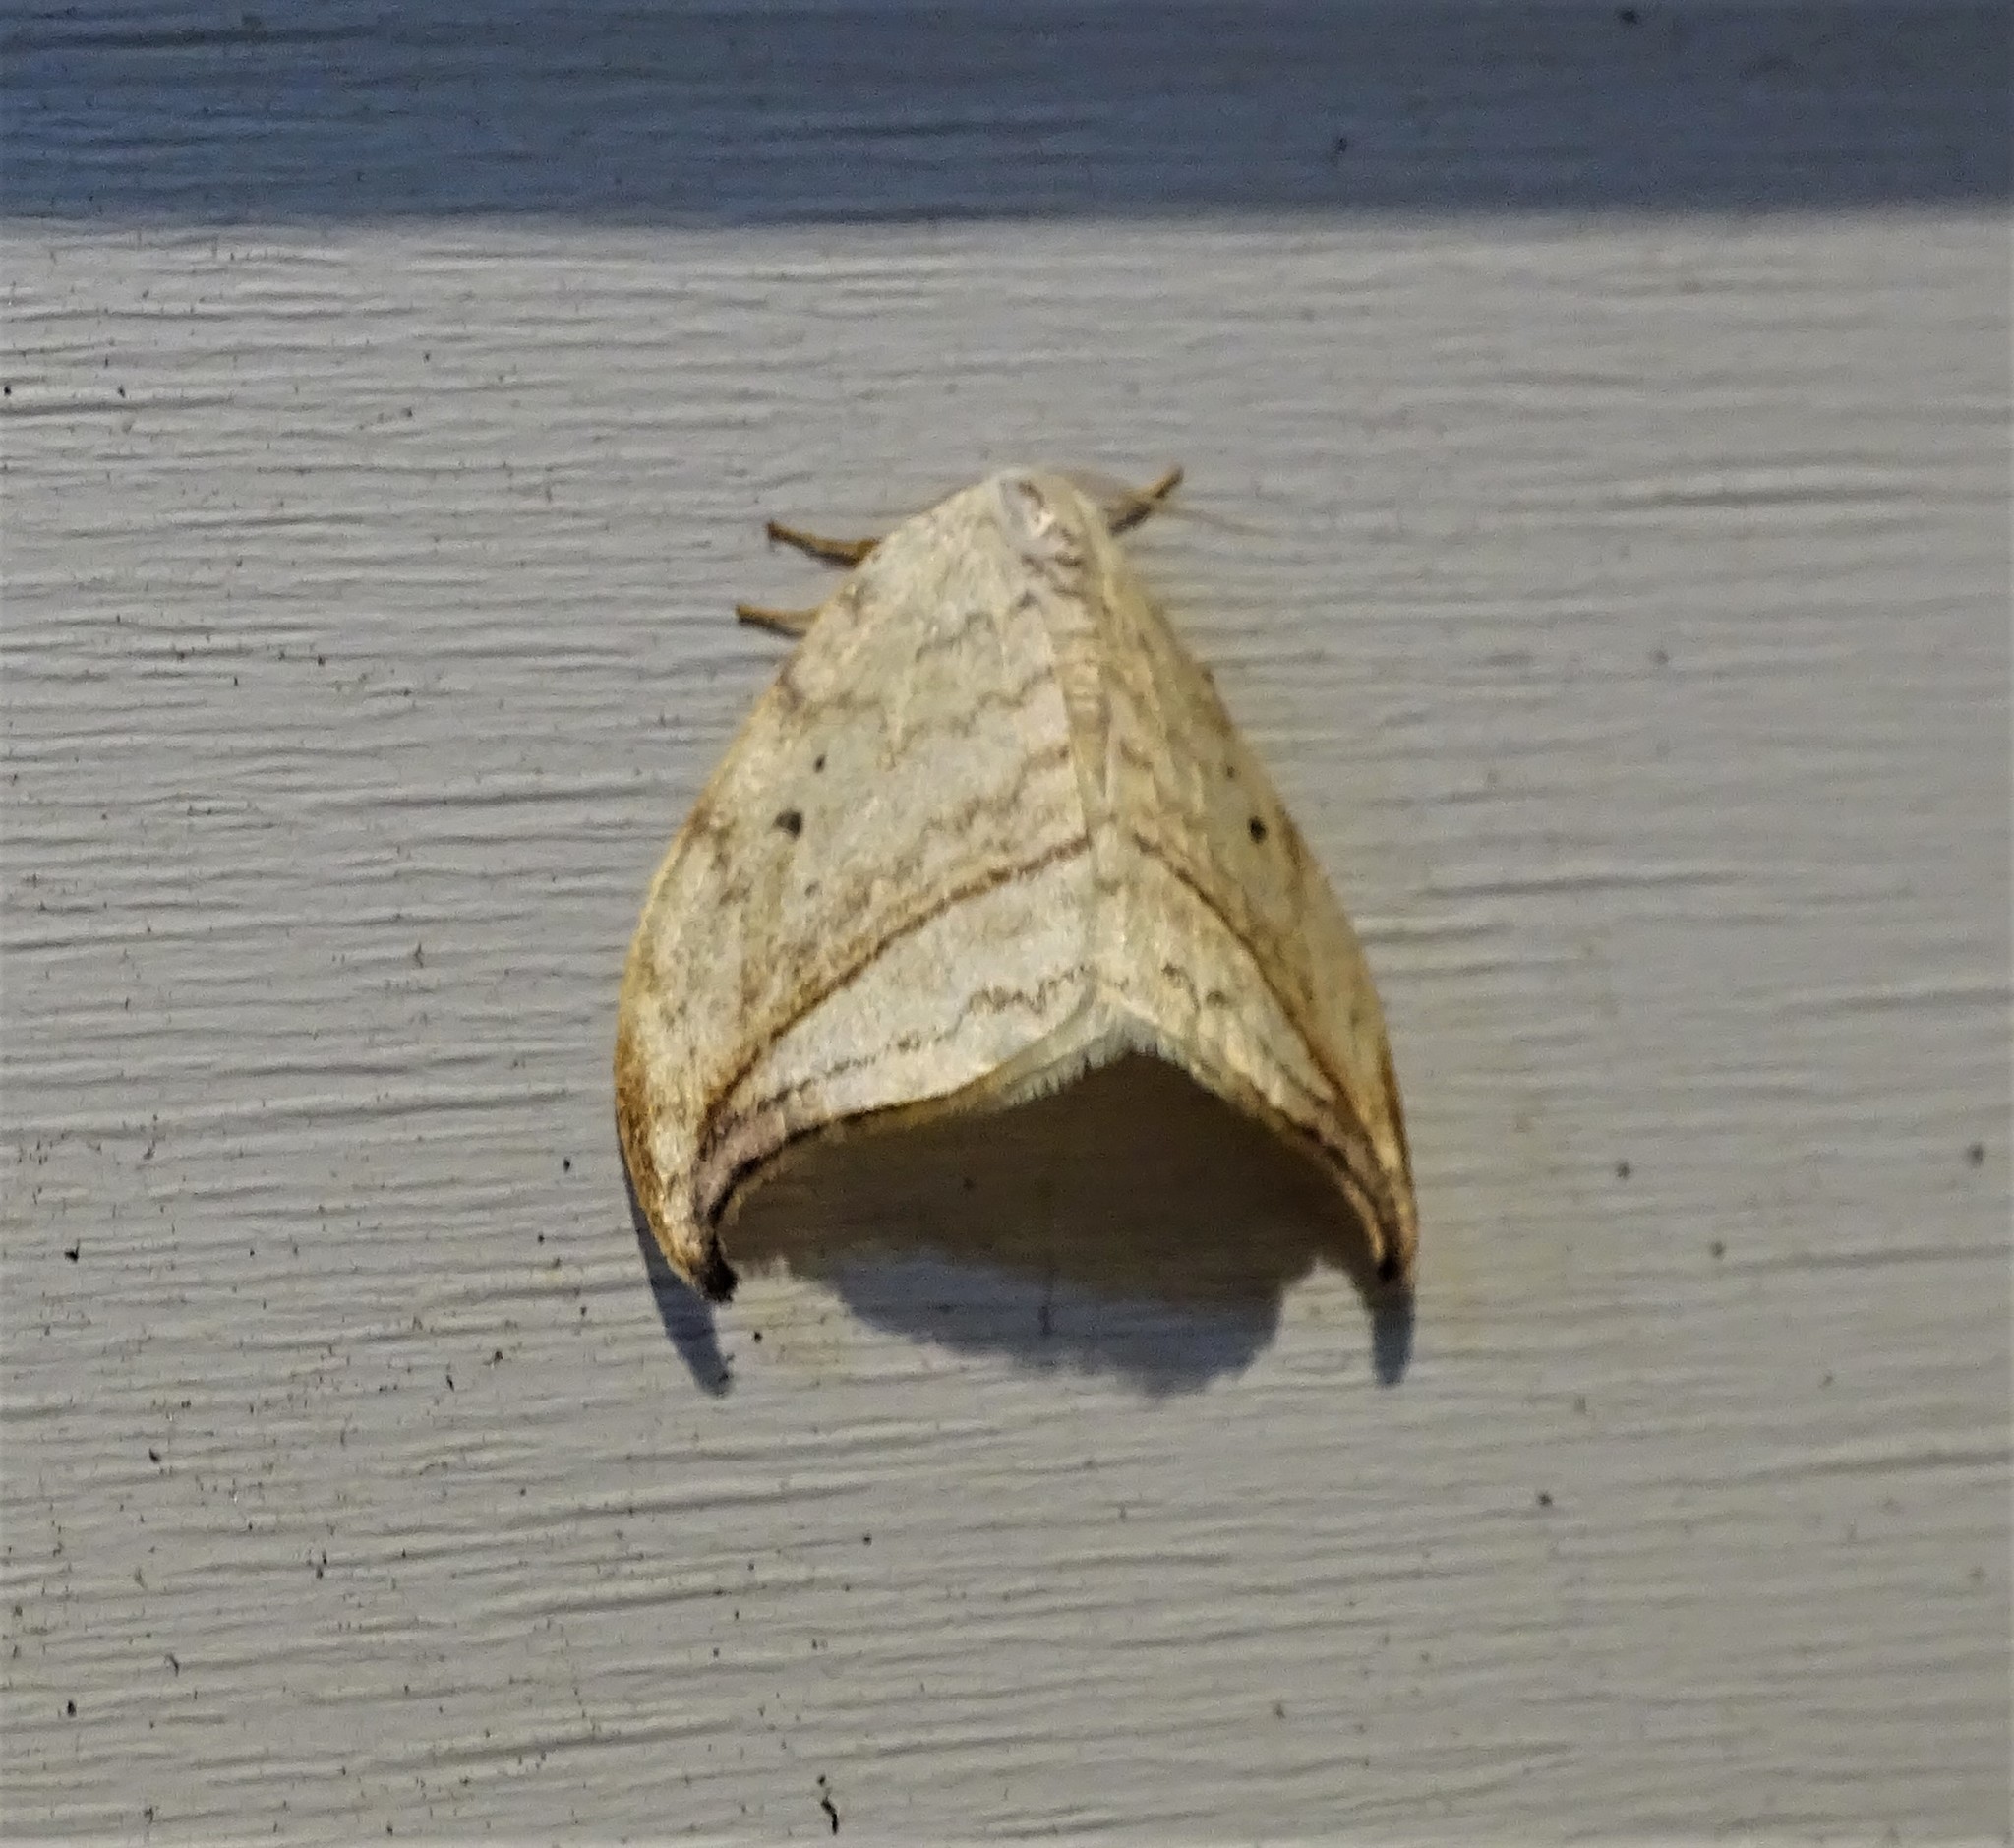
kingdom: Animalia
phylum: Arthropoda
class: Insecta
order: Lepidoptera
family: Drepanidae
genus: Drepana
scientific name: Drepana arcuata
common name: Arched hooktip moth
